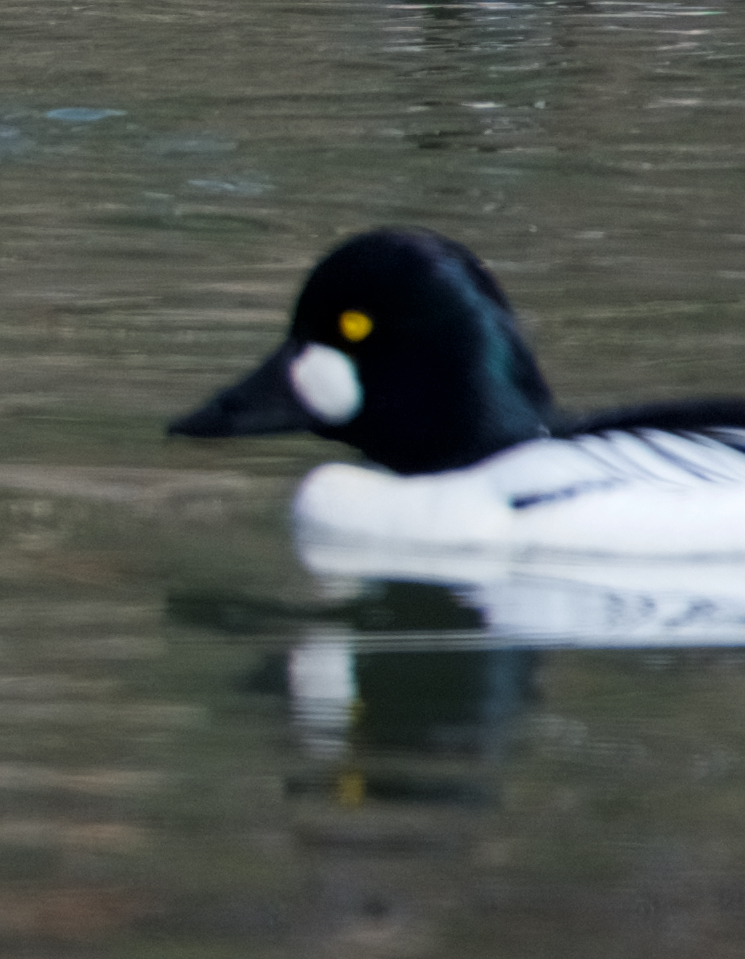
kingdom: Animalia
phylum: Chordata
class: Aves
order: Anseriformes
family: Anatidae
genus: Bucephala
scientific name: Bucephala clangula
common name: Common goldeneye
